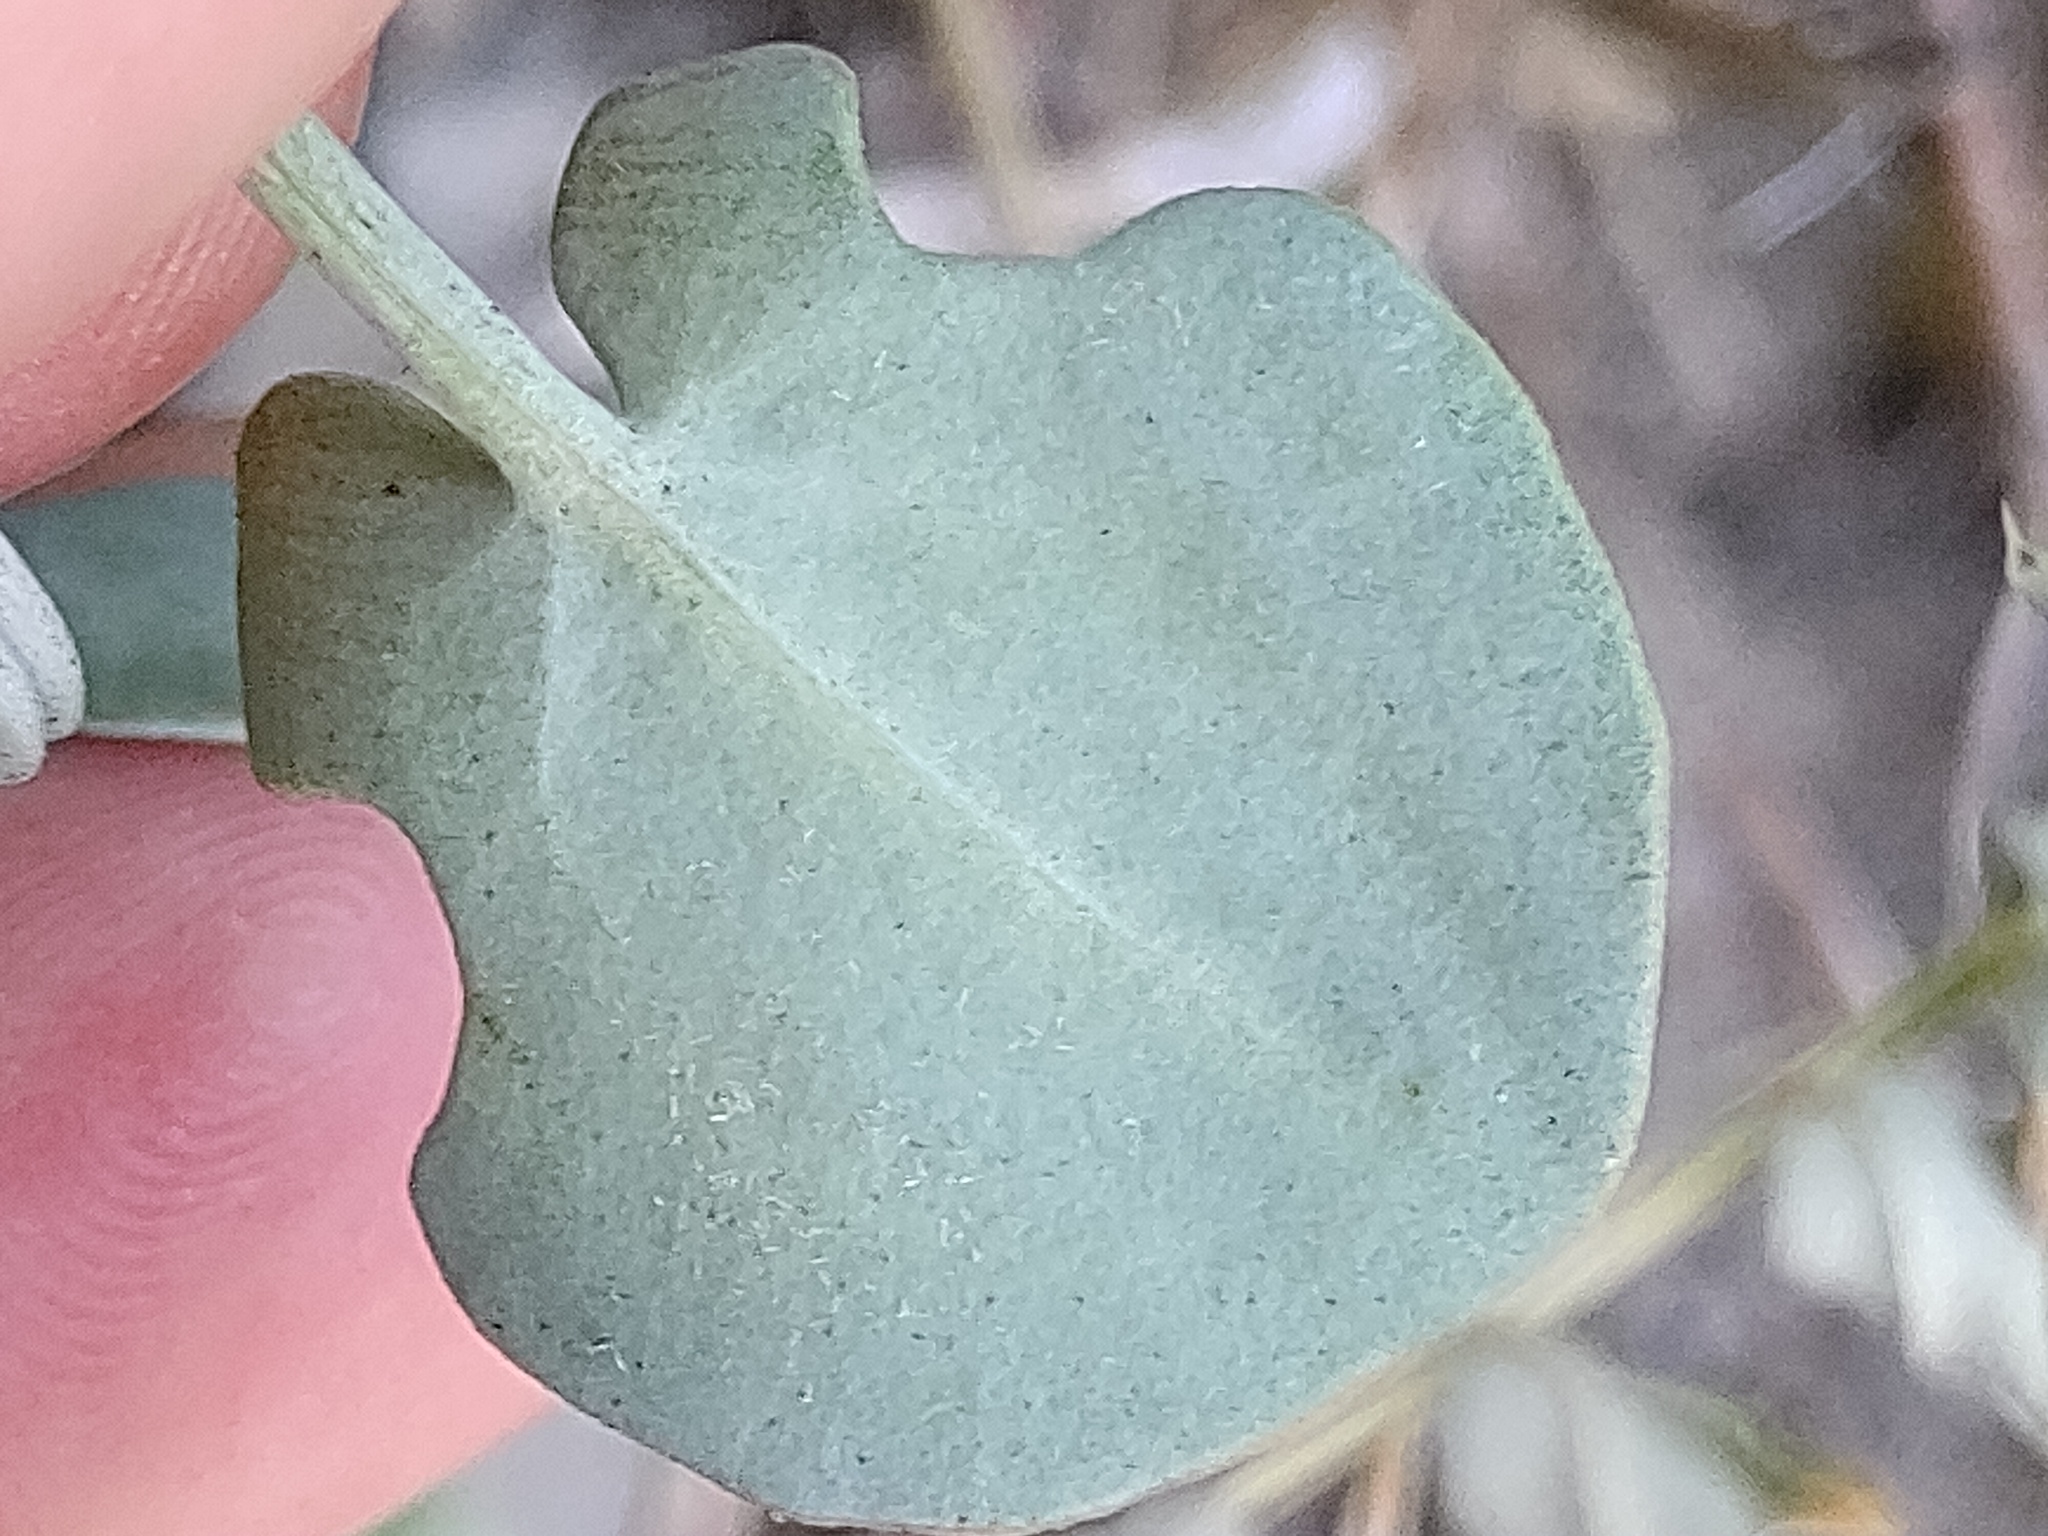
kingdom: Plantae
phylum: Tracheophyta
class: Magnoliopsida
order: Caryophyllales
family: Polygonaceae
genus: Rumex
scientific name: Rumex scutatus
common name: French sorrel
